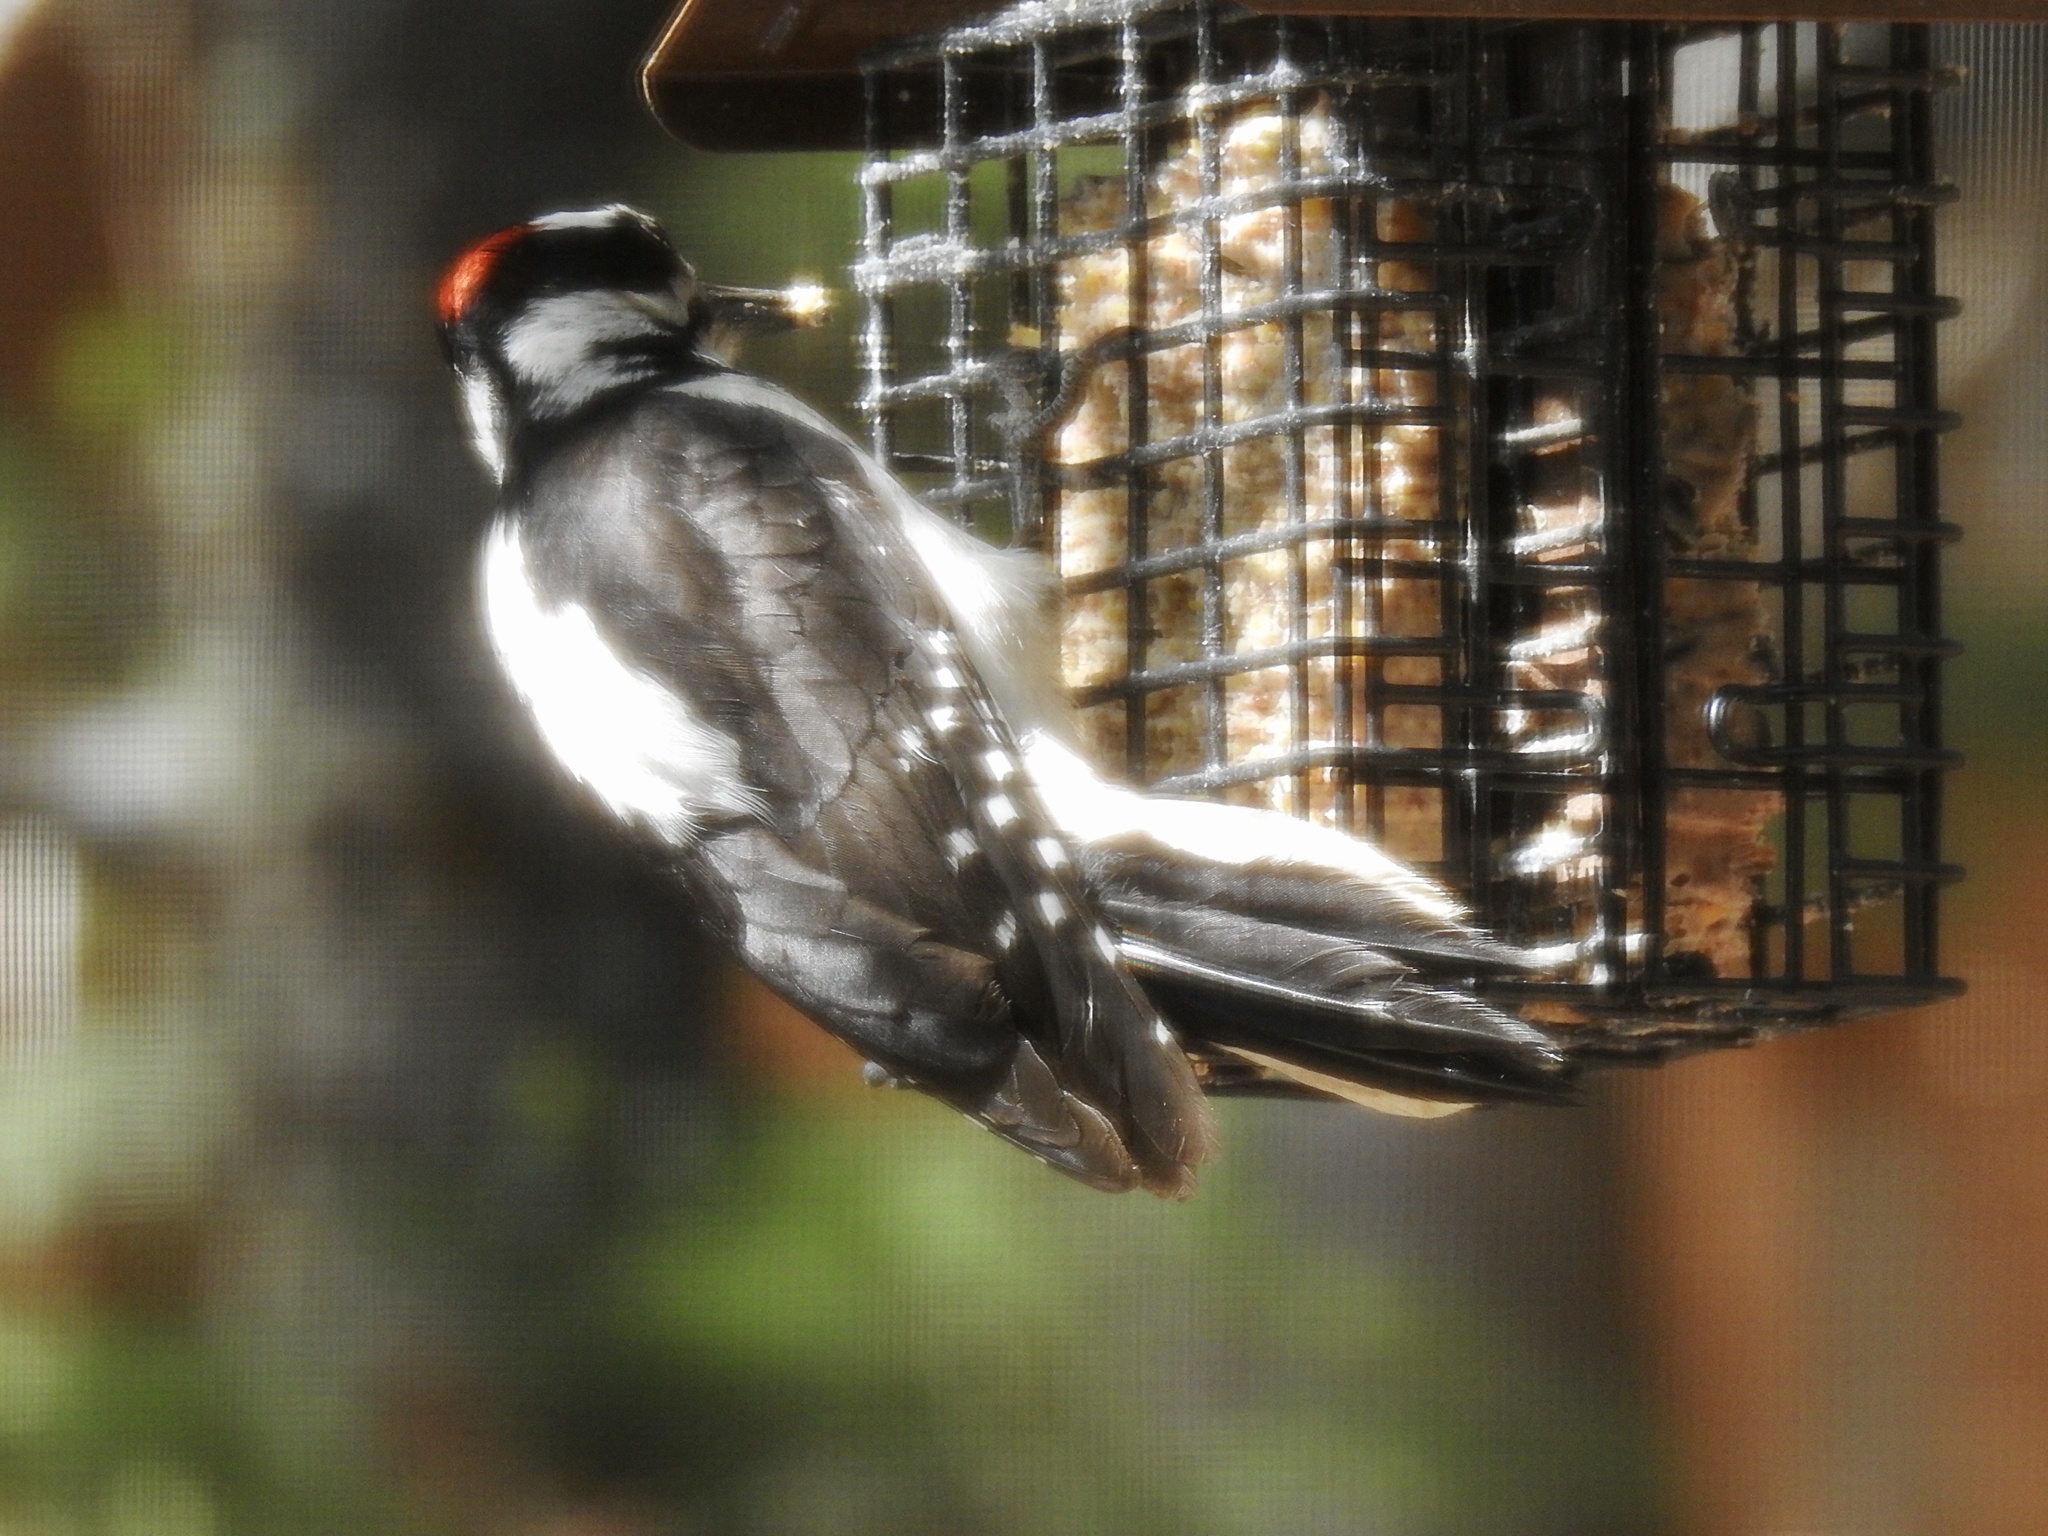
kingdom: Animalia
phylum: Chordata
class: Aves
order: Piciformes
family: Picidae
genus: Leuconotopicus
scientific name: Leuconotopicus villosus
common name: Hairy woodpecker
